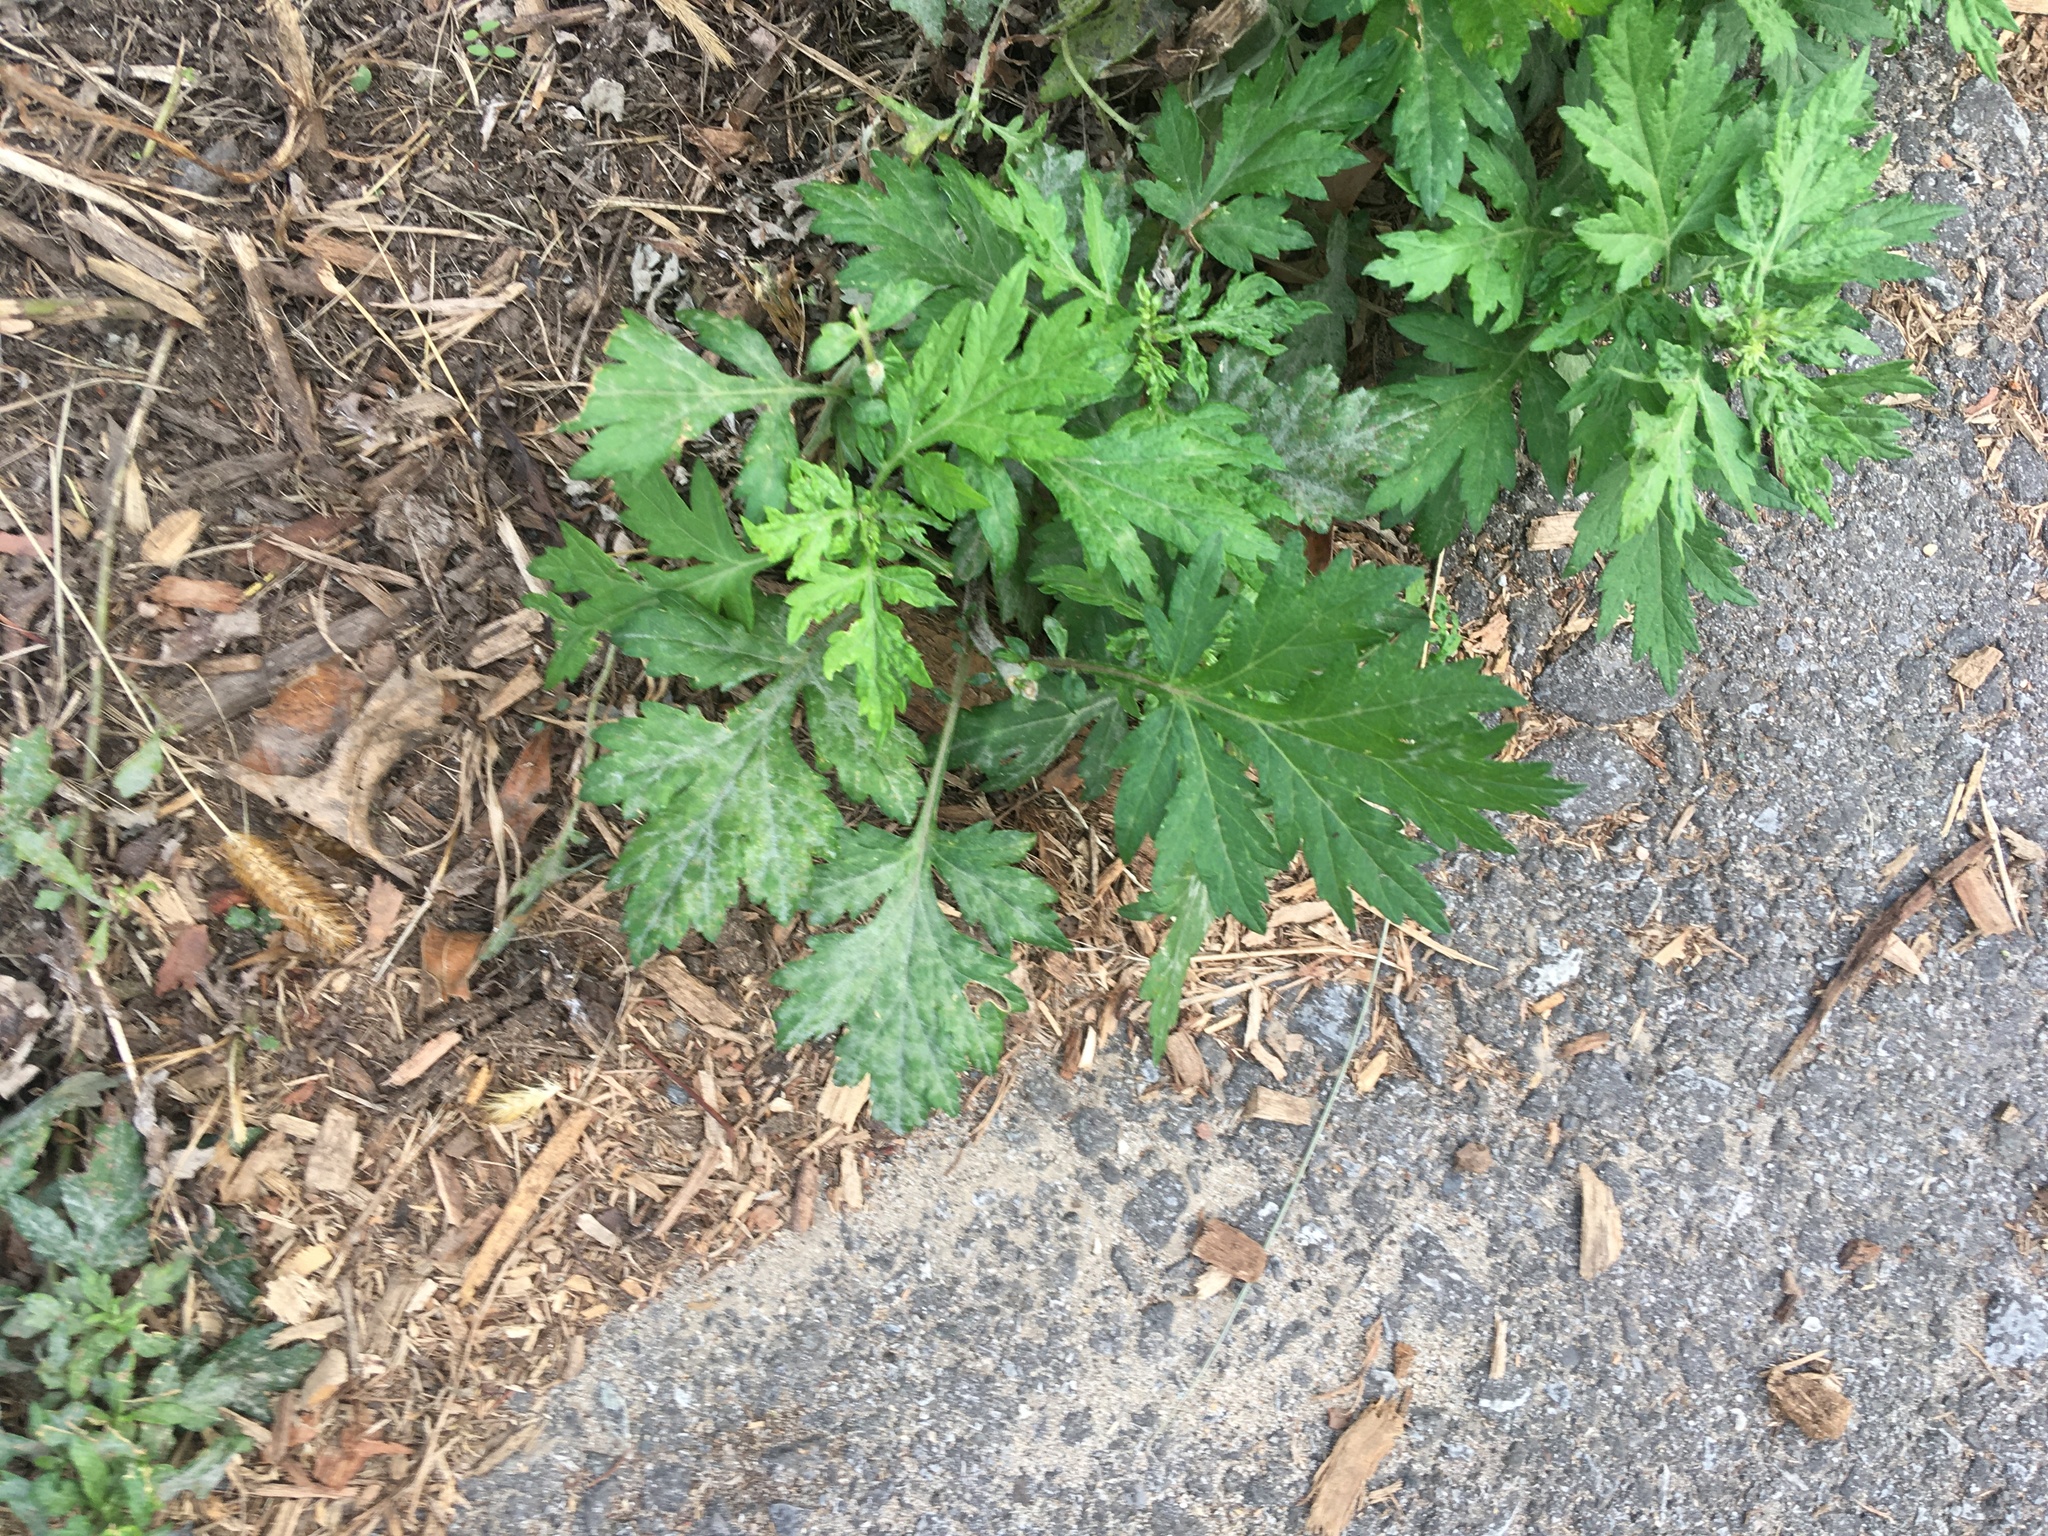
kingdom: Plantae
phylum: Tracheophyta
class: Magnoliopsida
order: Asterales
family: Asteraceae
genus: Artemisia
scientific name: Artemisia vulgaris
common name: Mugwort
